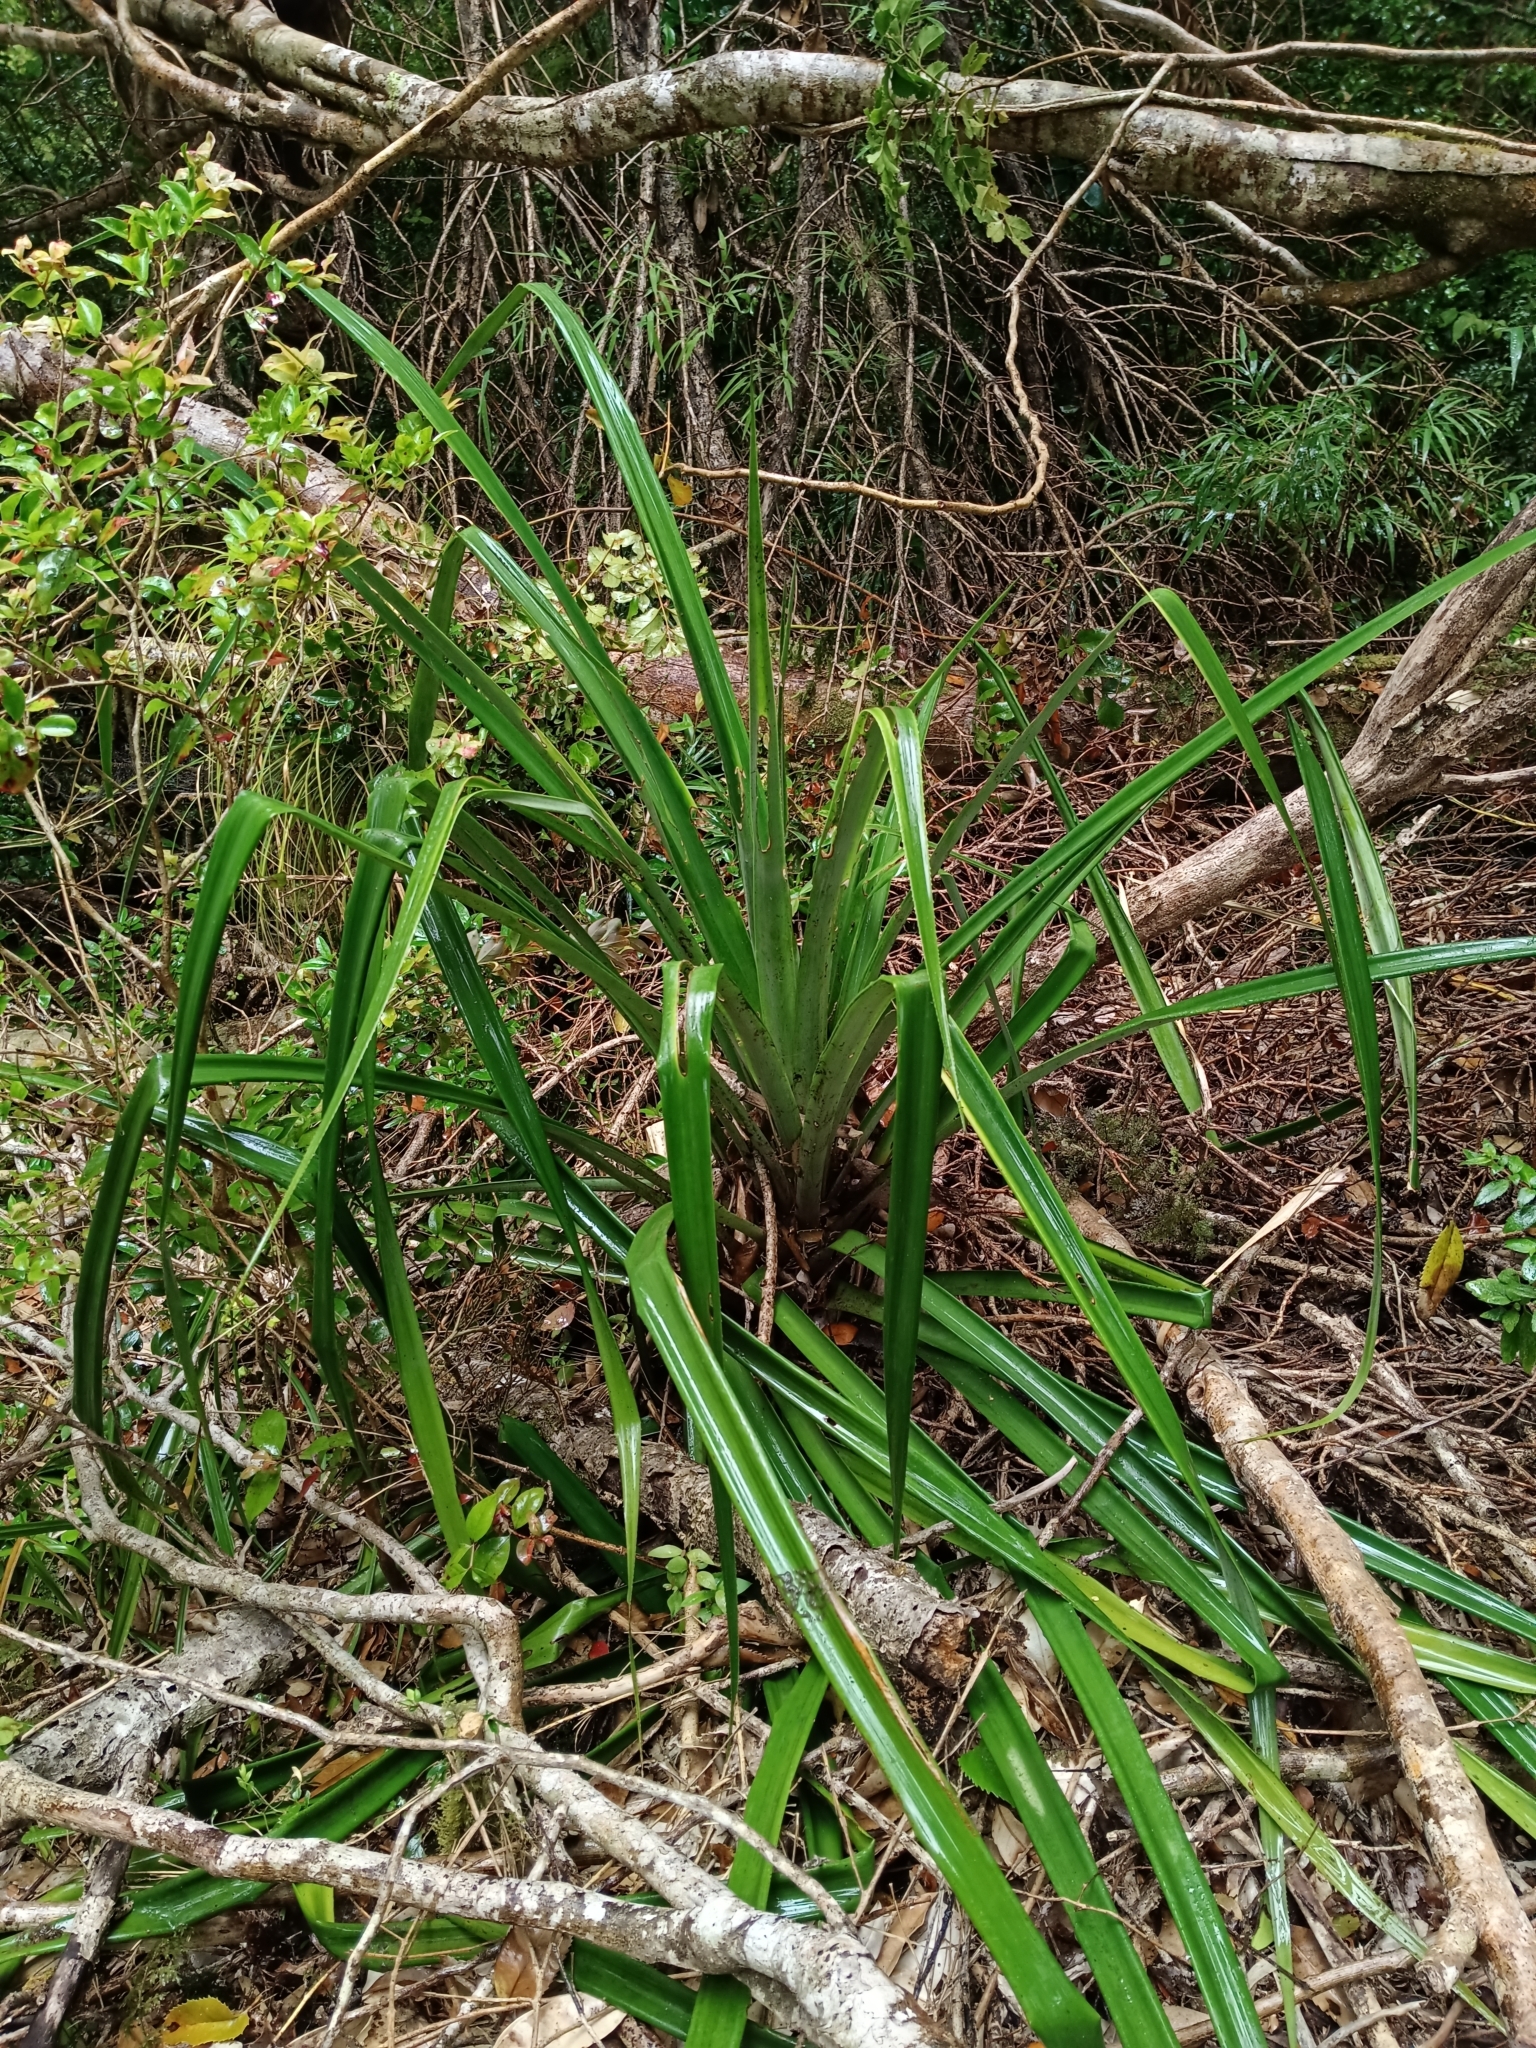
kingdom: Plantae
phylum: Tracheophyta
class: Liliopsida
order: Poales
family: Bromeliaceae
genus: Greigia
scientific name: Greigia landbeckii
